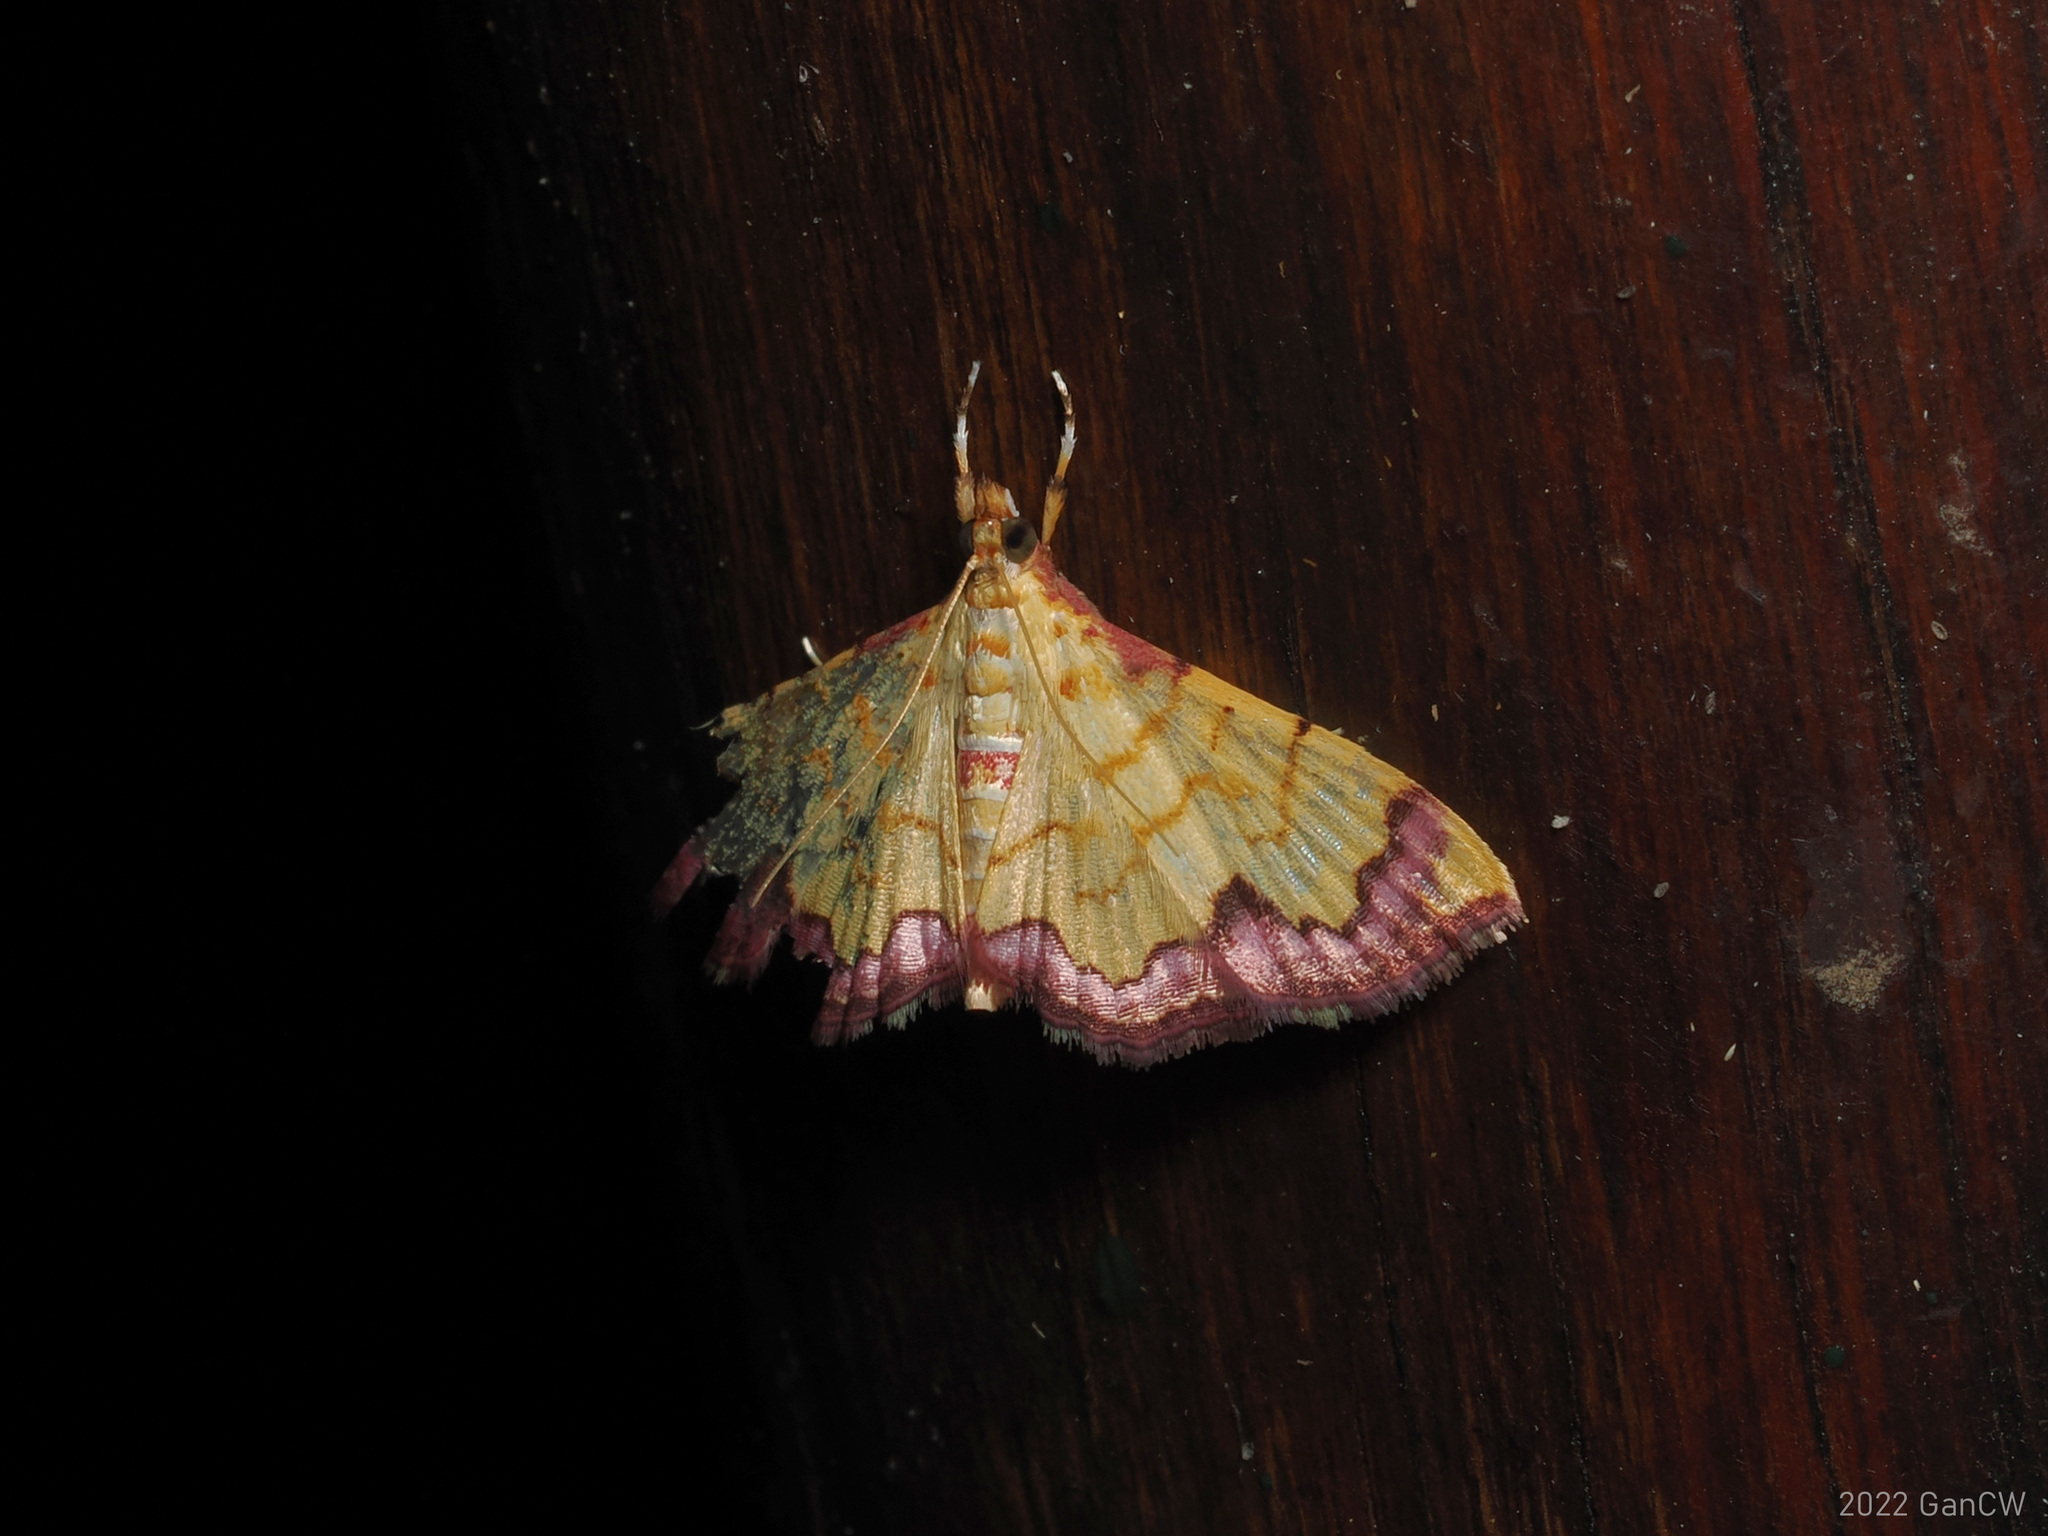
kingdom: Animalia
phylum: Arthropoda
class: Insecta
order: Lepidoptera
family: Crambidae
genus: Hyalobathra
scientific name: Hyalobathra phoenicozona
